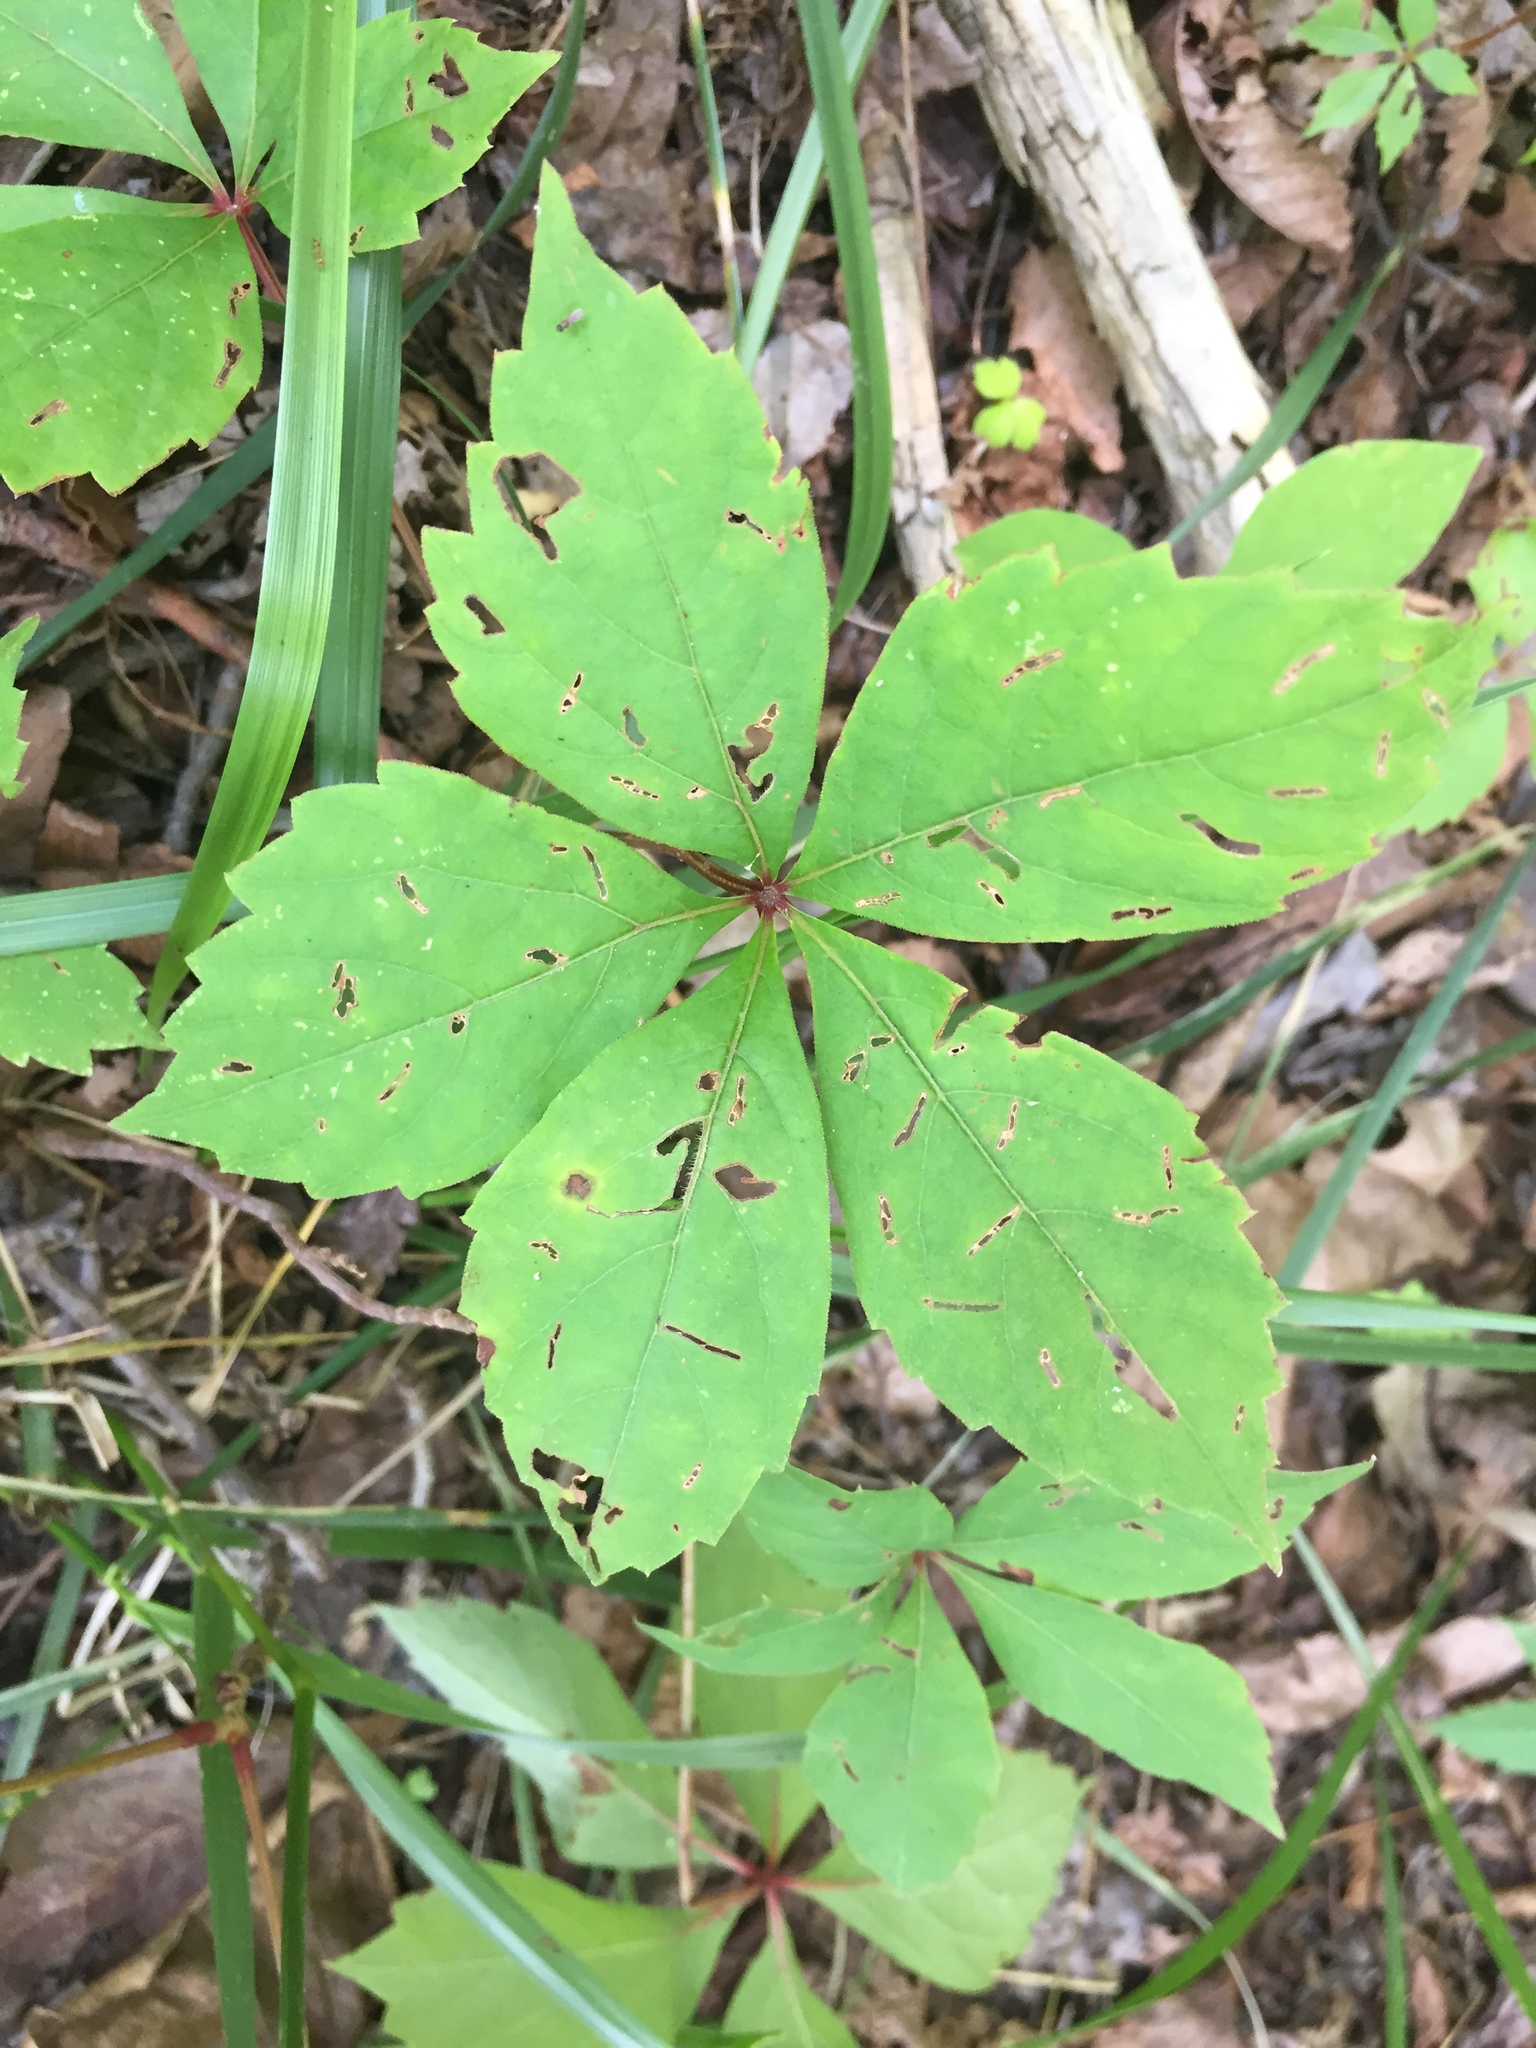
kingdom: Plantae
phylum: Tracheophyta
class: Magnoliopsida
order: Vitales
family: Vitaceae
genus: Parthenocissus
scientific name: Parthenocissus quinquefolia
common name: Virginia-creeper
